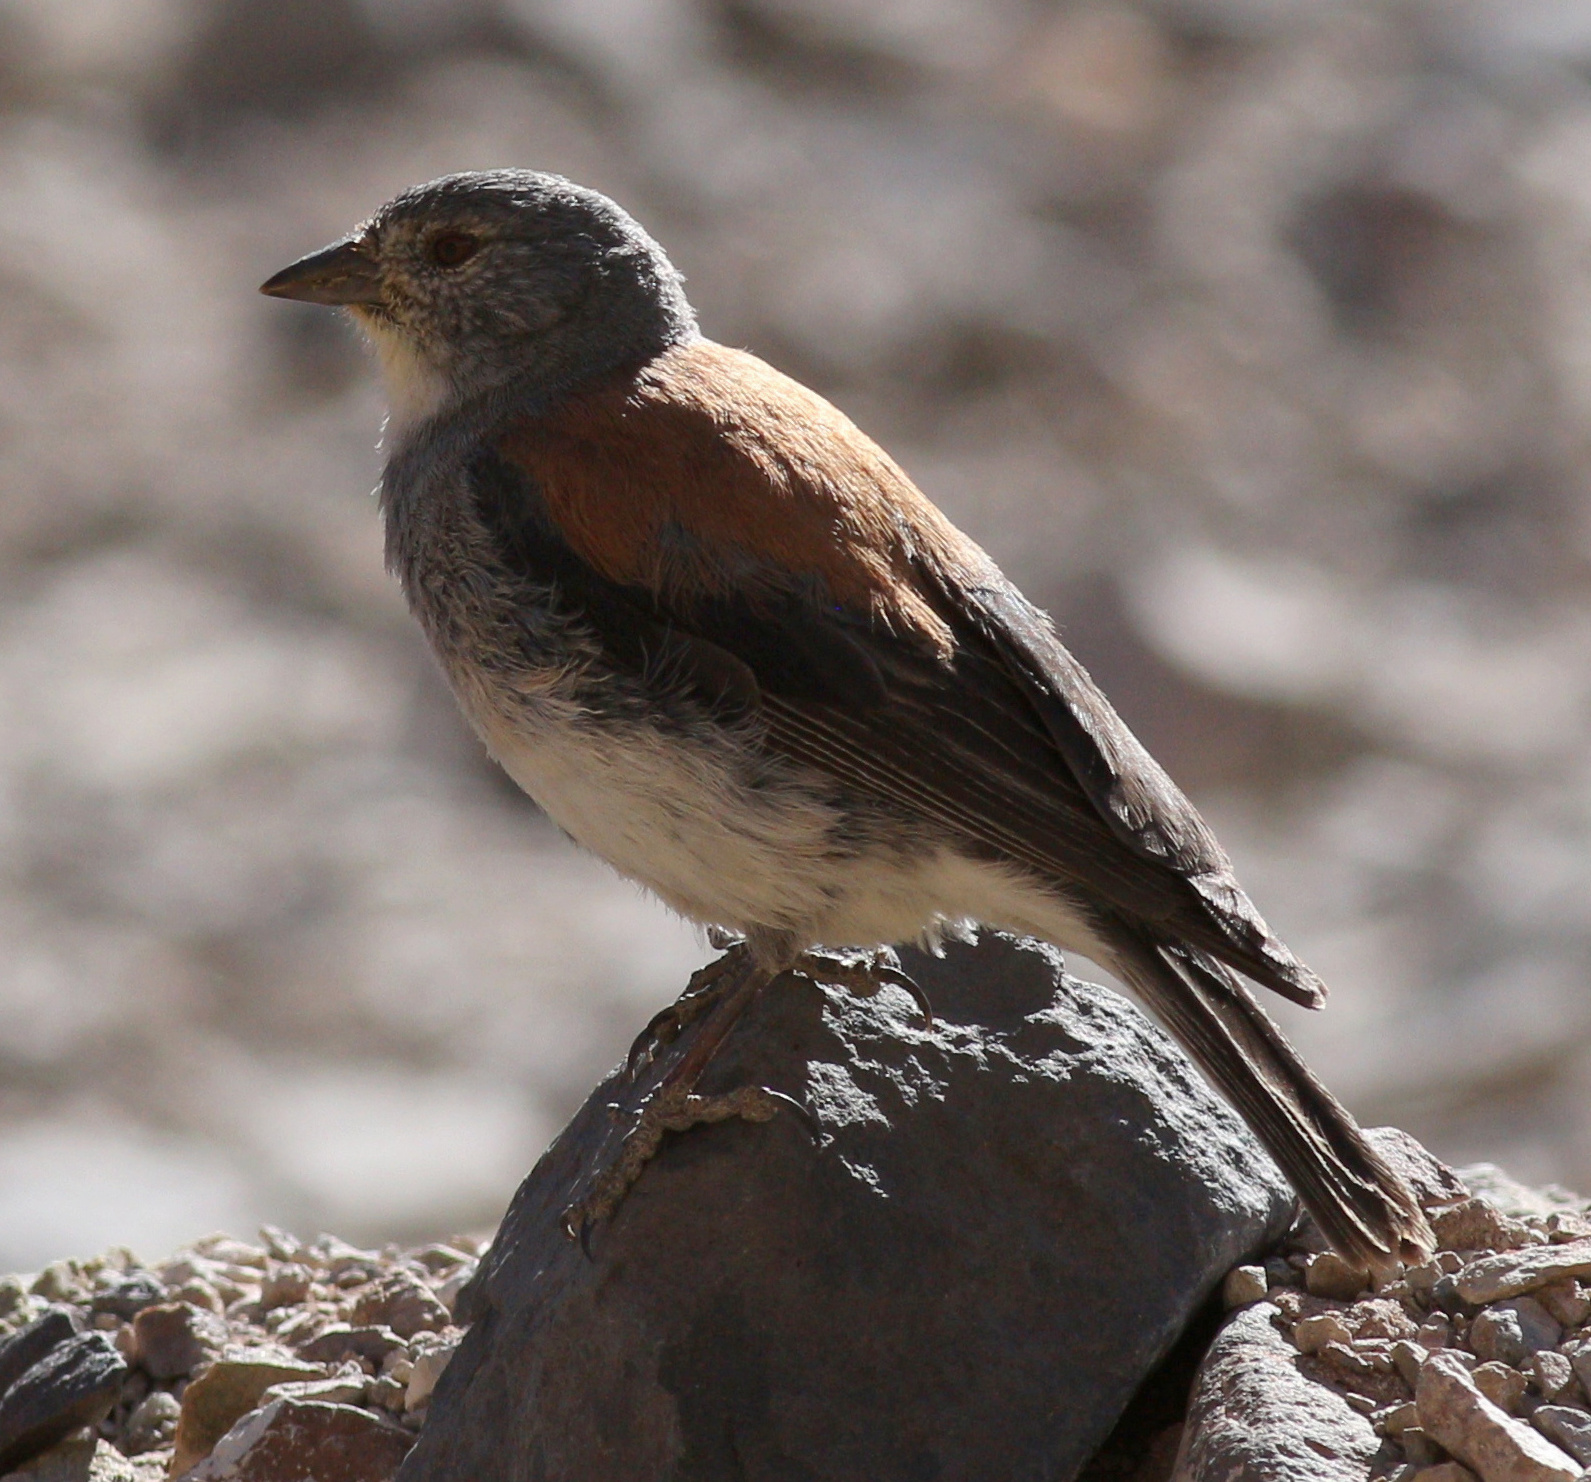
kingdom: Animalia
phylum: Chordata
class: Aves
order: Passeriformes
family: Thraupidae
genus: Idiopsar
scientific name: Idiopsar dorsalis
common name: Red-backed sierra finch
